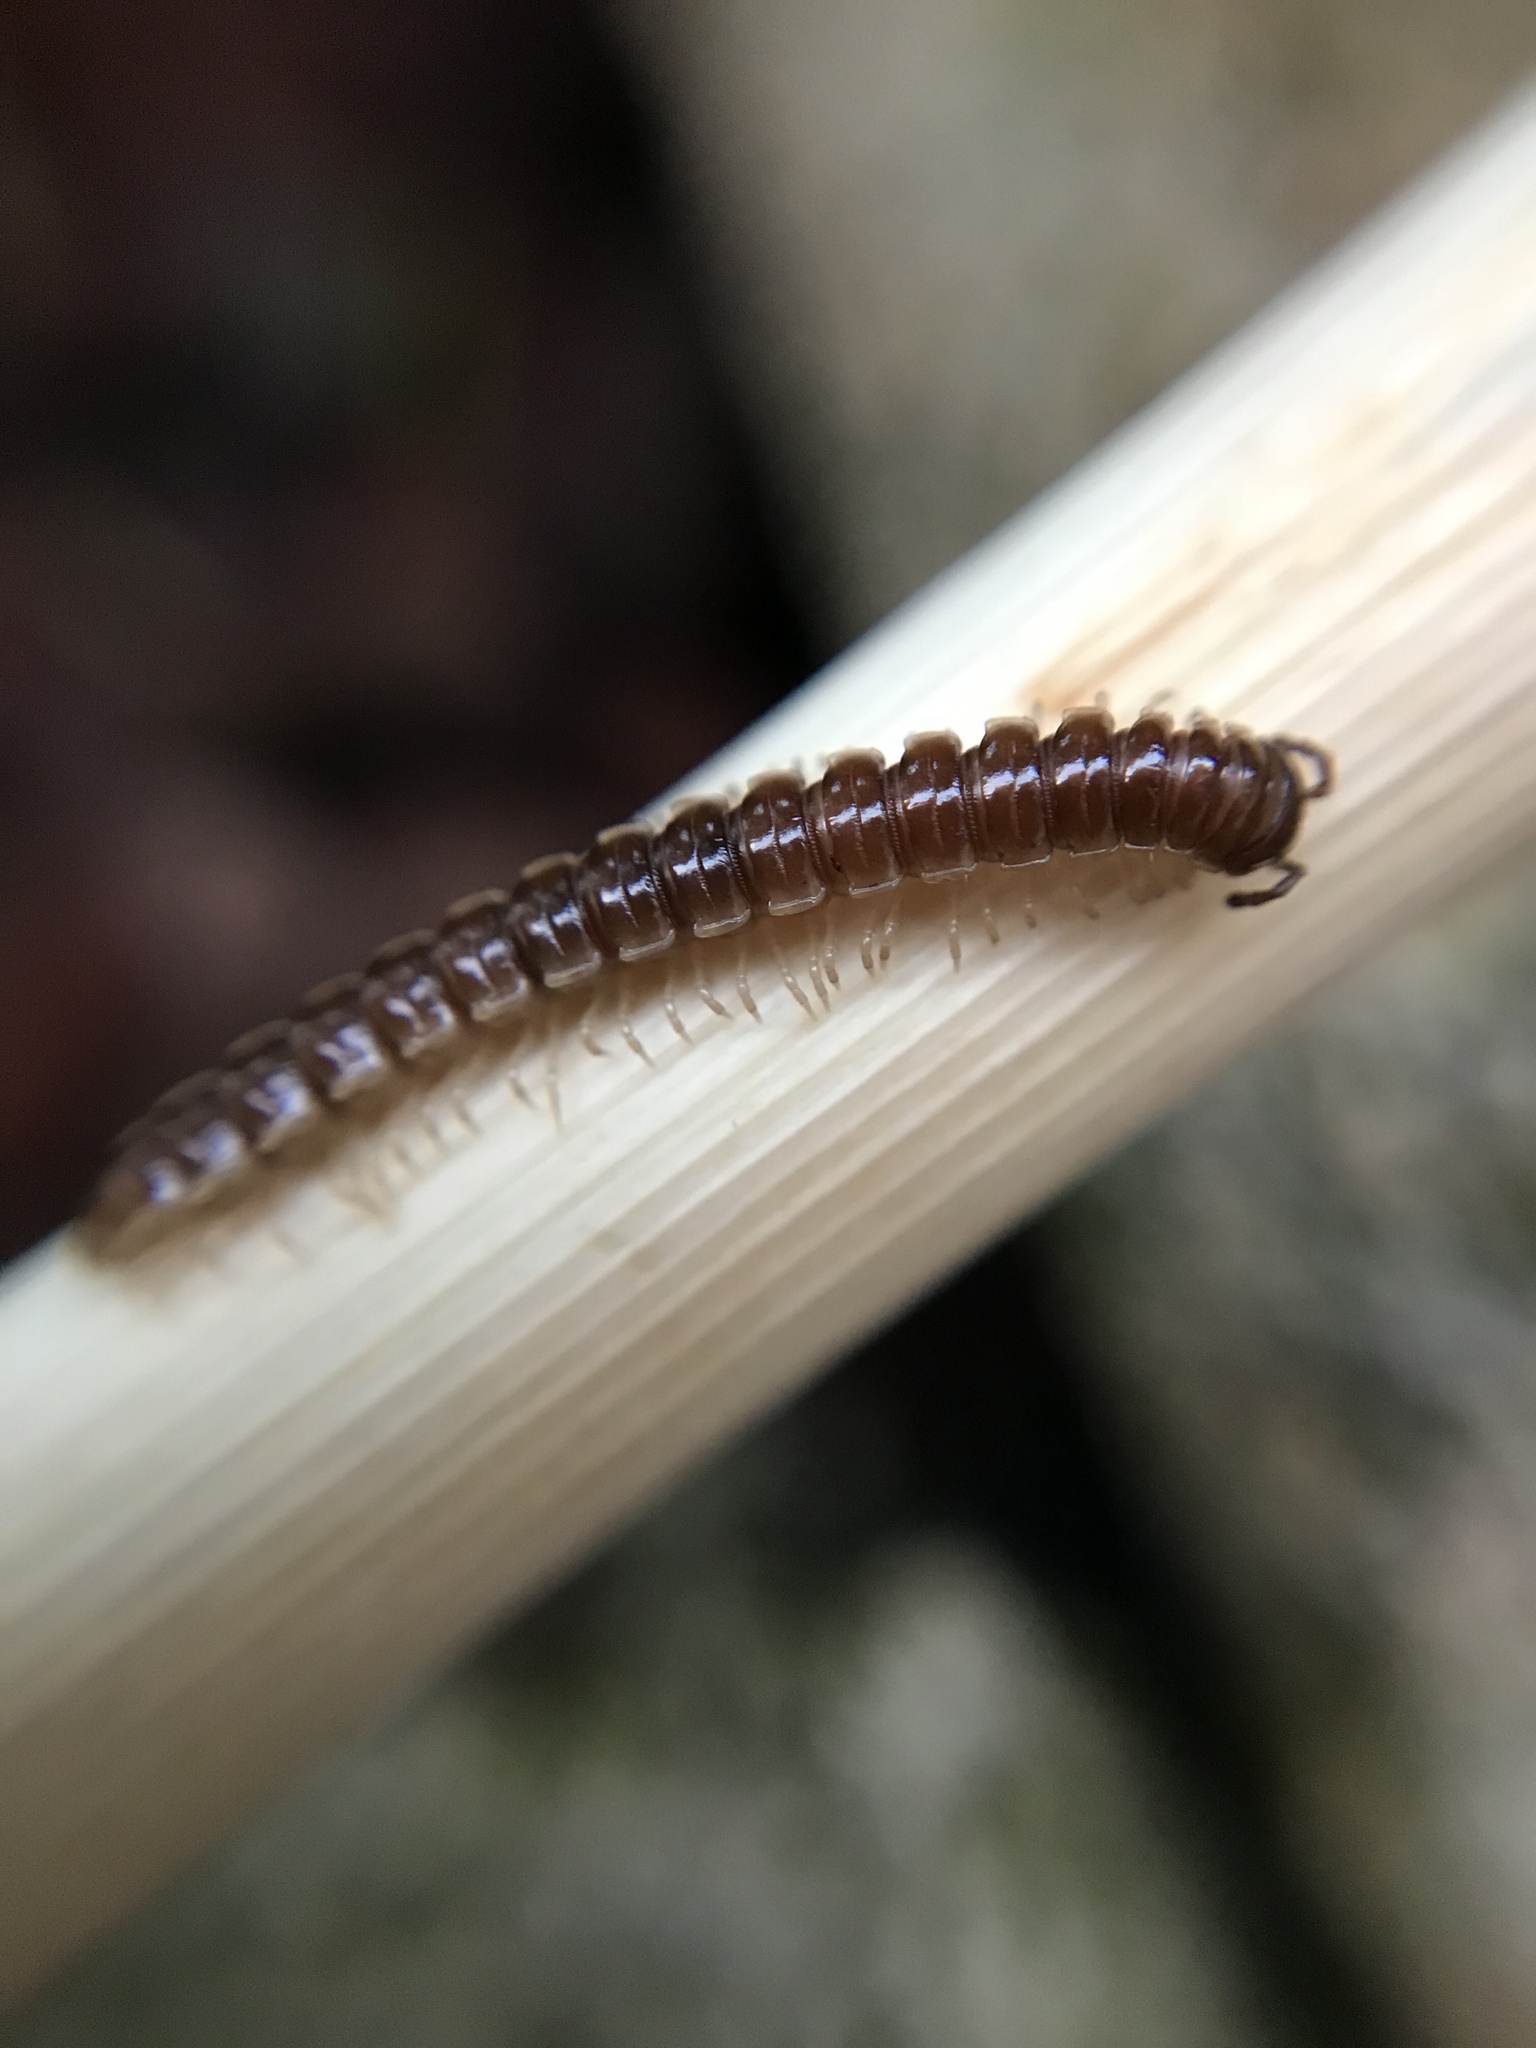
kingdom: Animalia
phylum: Arthropoda
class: Diplopoda
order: Polydesmida
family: Paradoxosomatidae
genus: Oxidus
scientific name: Oxidus gracilis
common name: Greenhouse millipede
